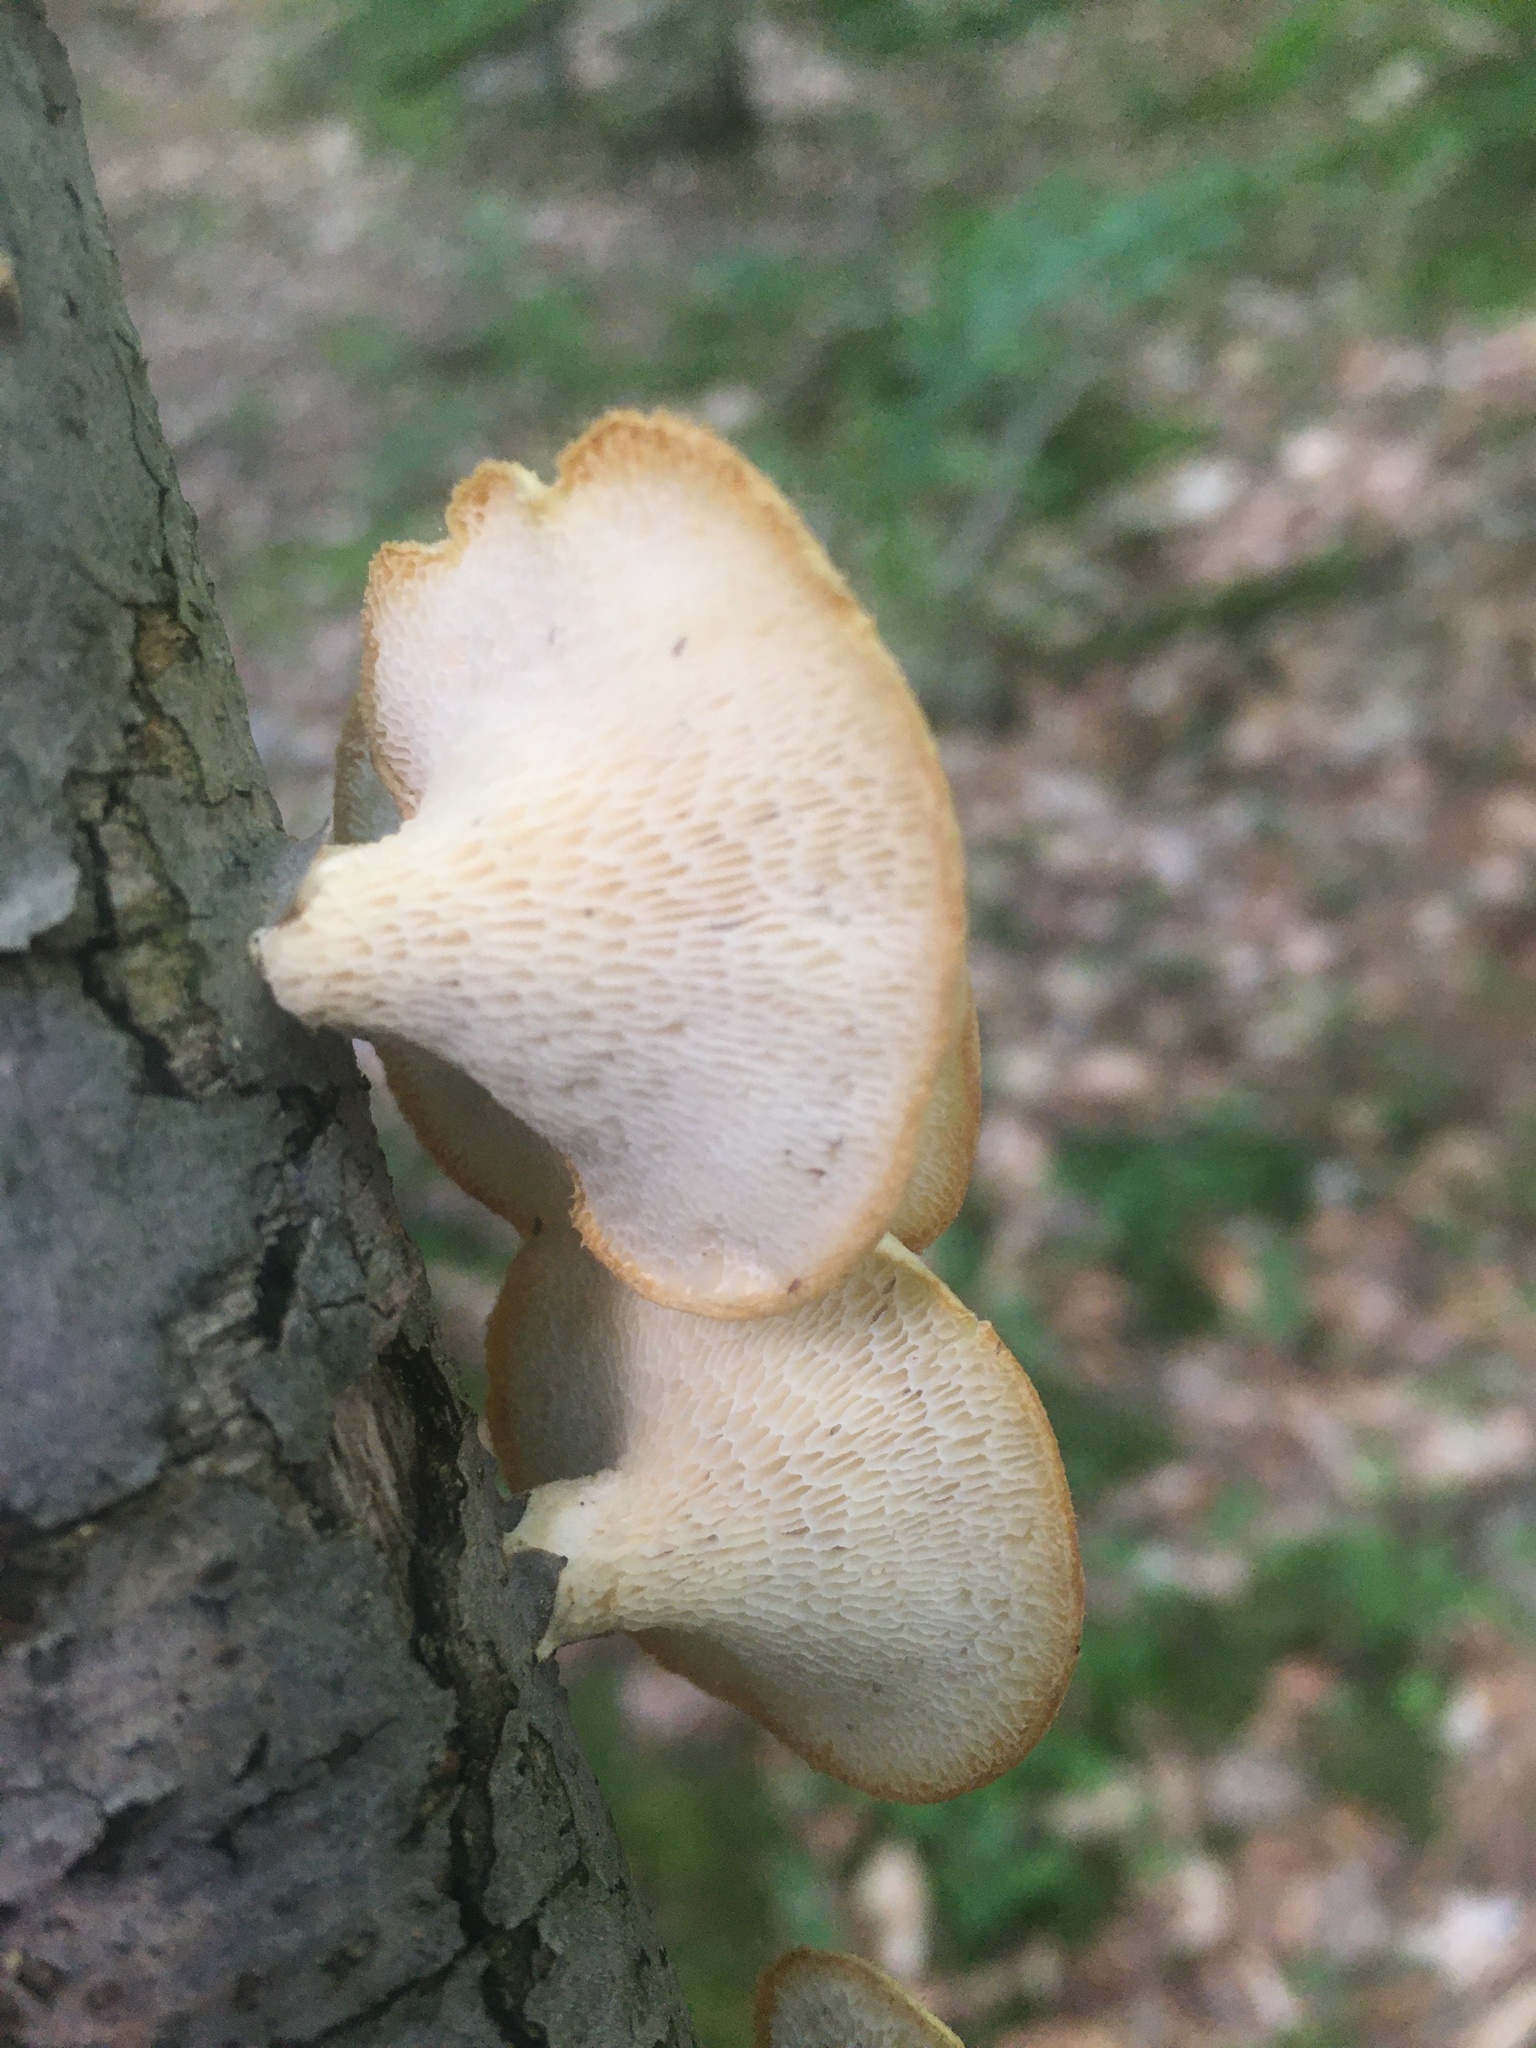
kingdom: Fungi
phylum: Basidiomycota
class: Agaricomycetes
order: Polyporales
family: Polyporaceae
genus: Neofavolus
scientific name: Neofavolus alveolaris
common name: Hexagonal-pored polypore
